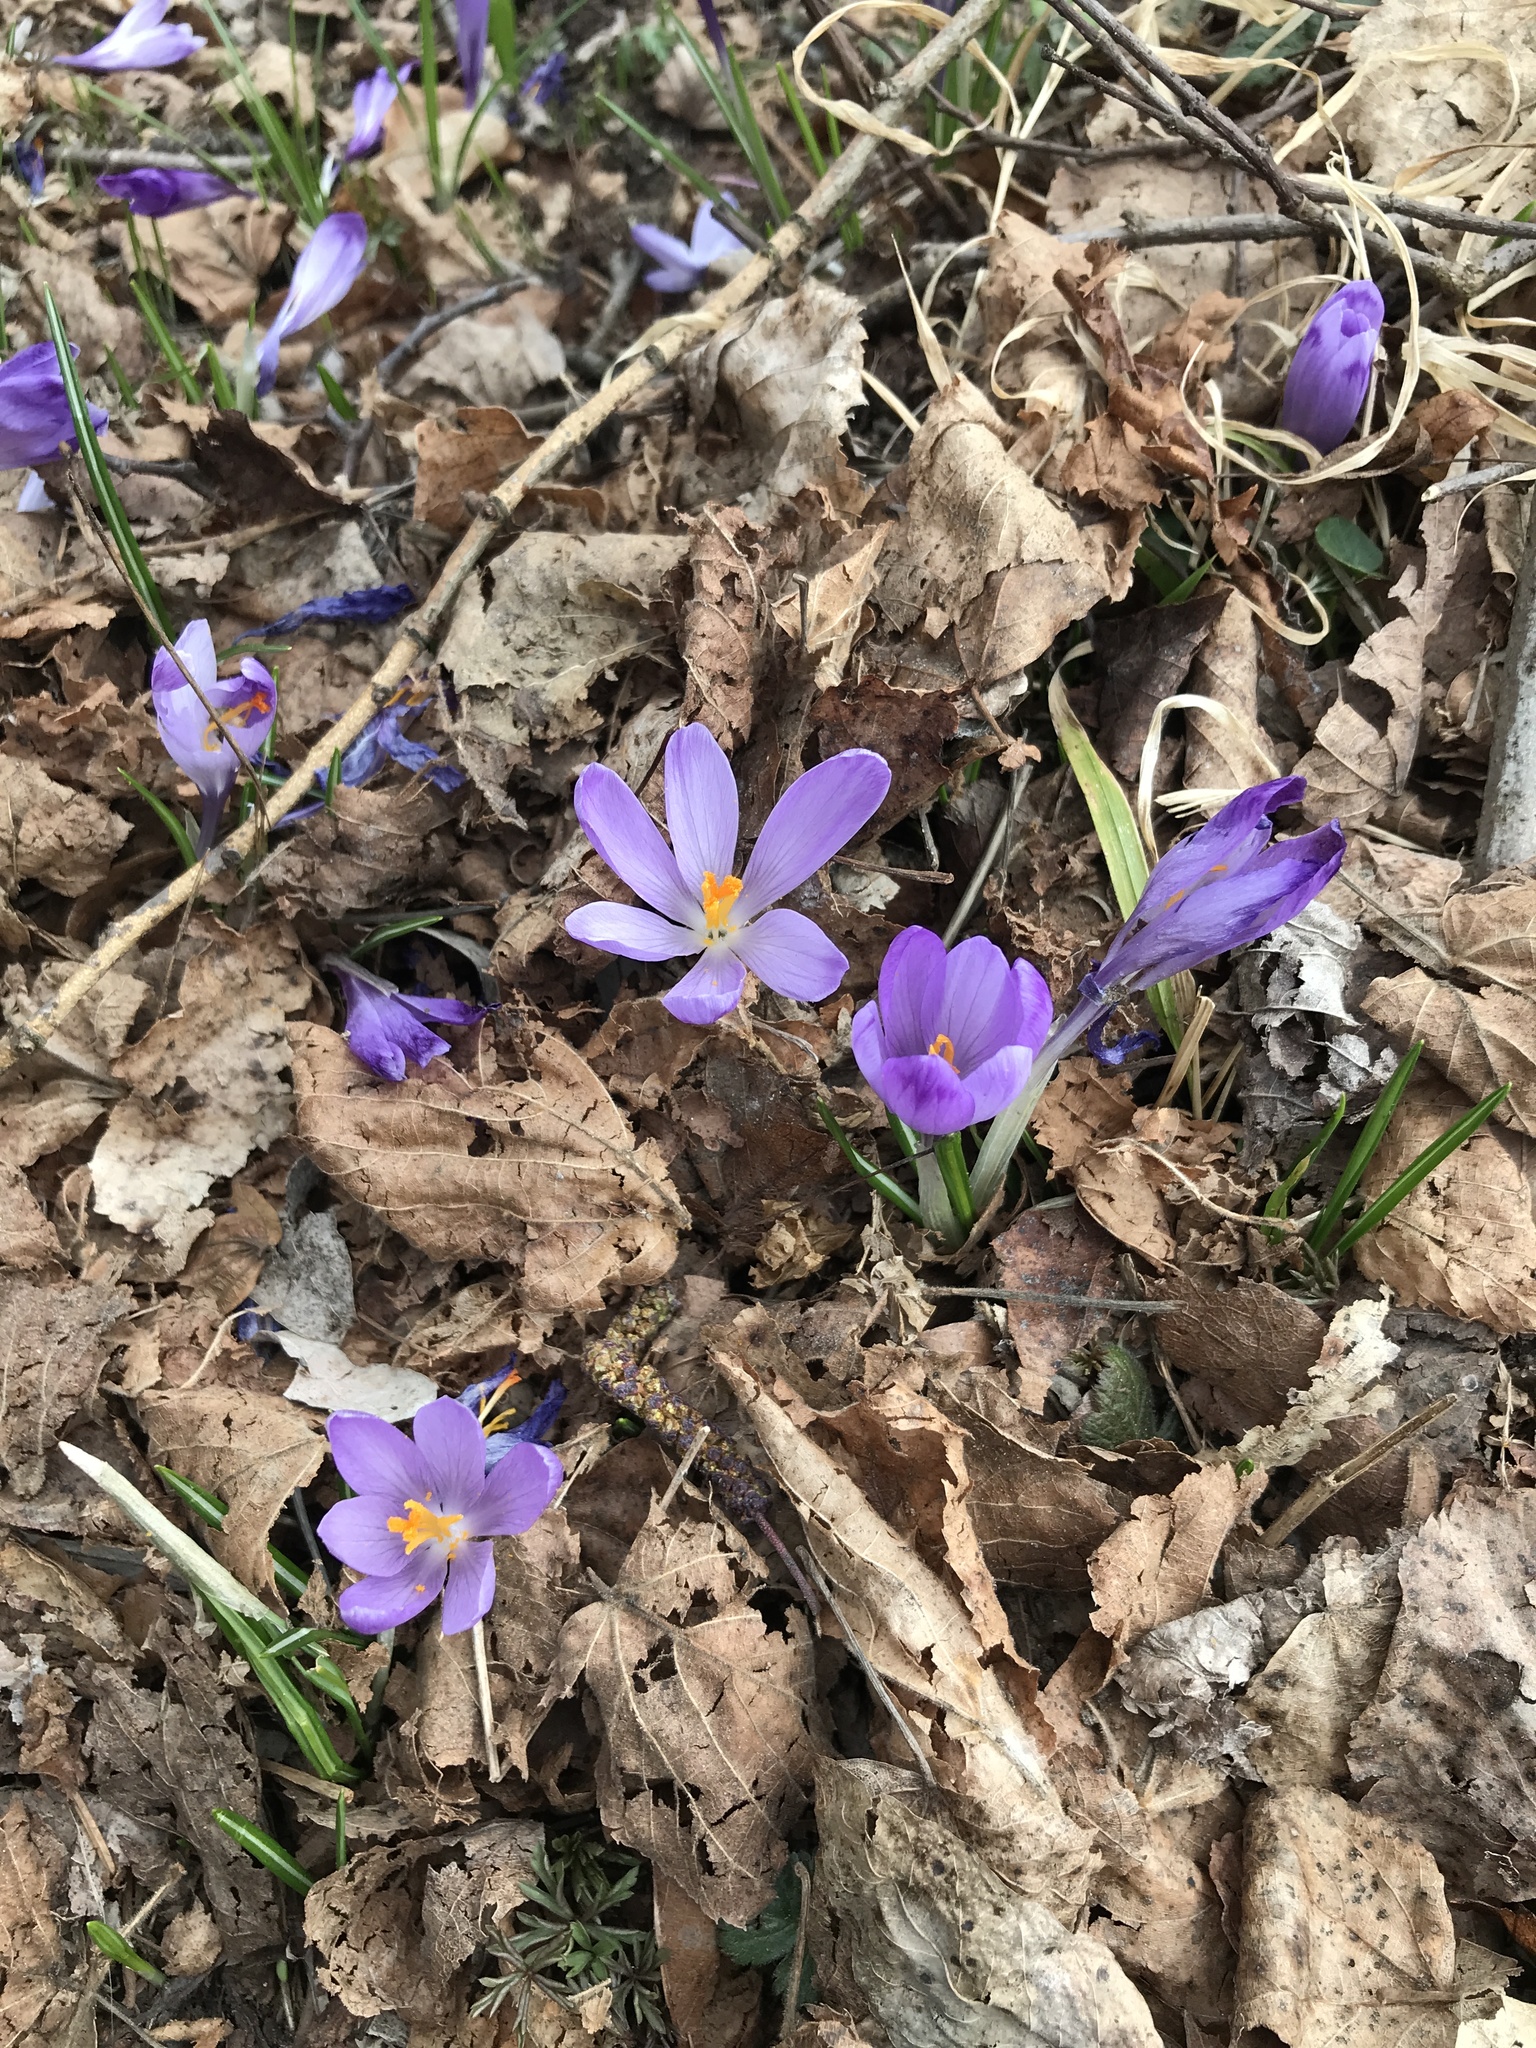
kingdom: Plantae
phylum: Tracheophyta
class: Liliopsida
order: Asparagales
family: Iridaceae
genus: Crocus
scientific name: Crocus heuffelianus
